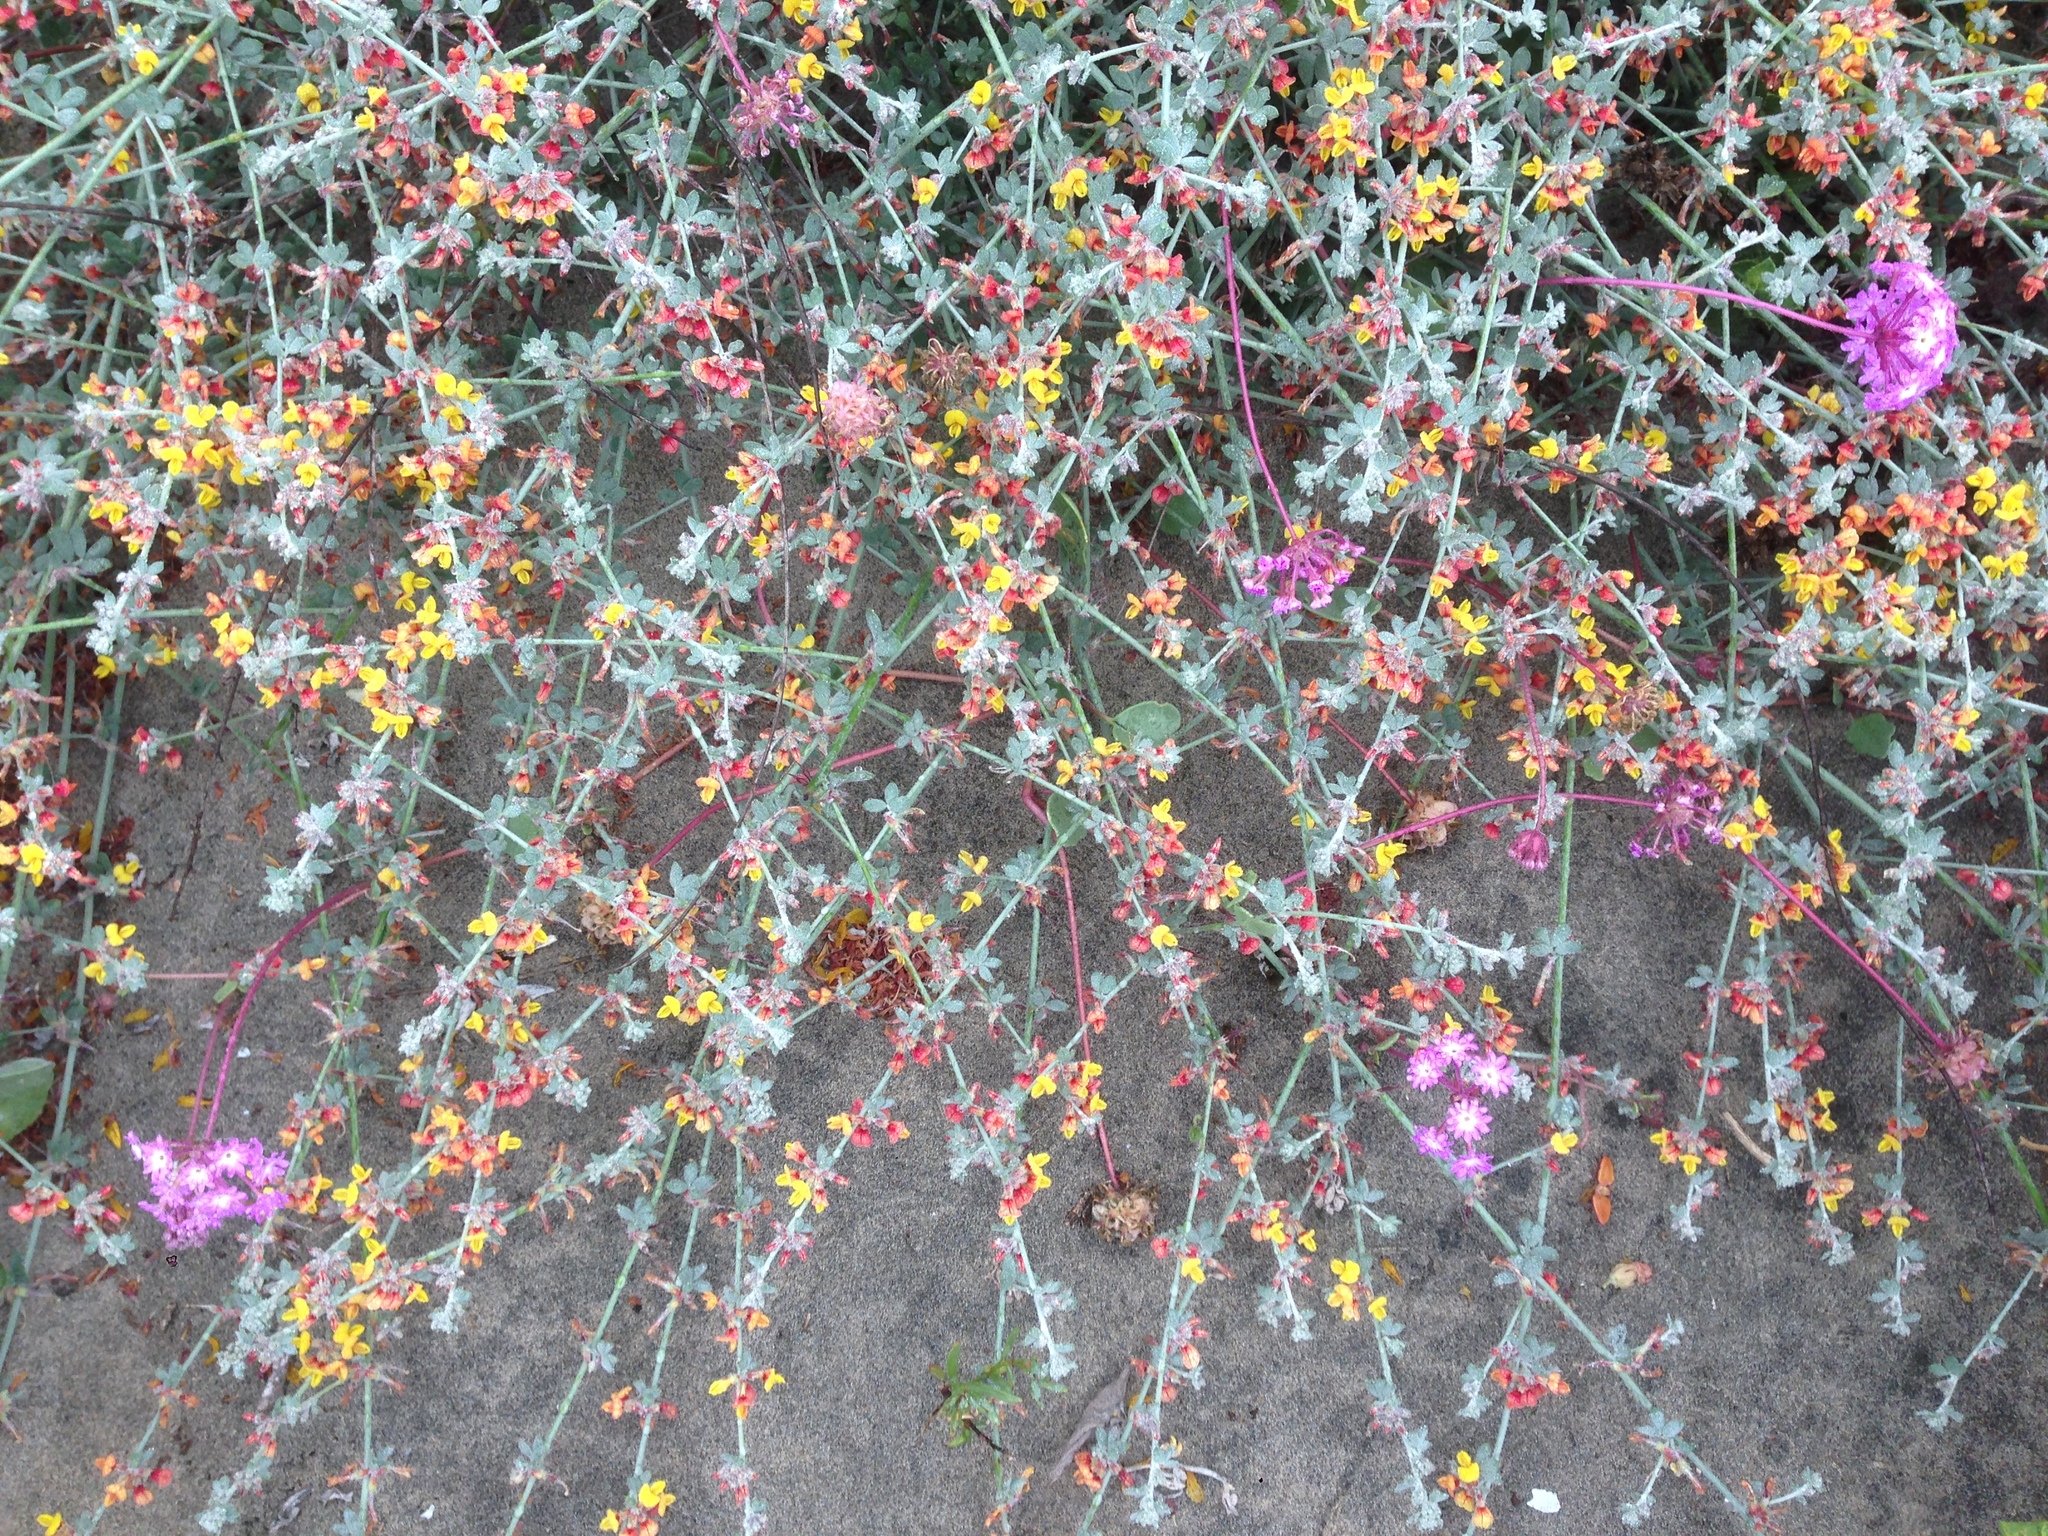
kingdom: Plantae
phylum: Tracheophyta
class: Magnoliopsida
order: Fabales
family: Fabaceae
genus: Acmispon
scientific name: Acmispon distichus
